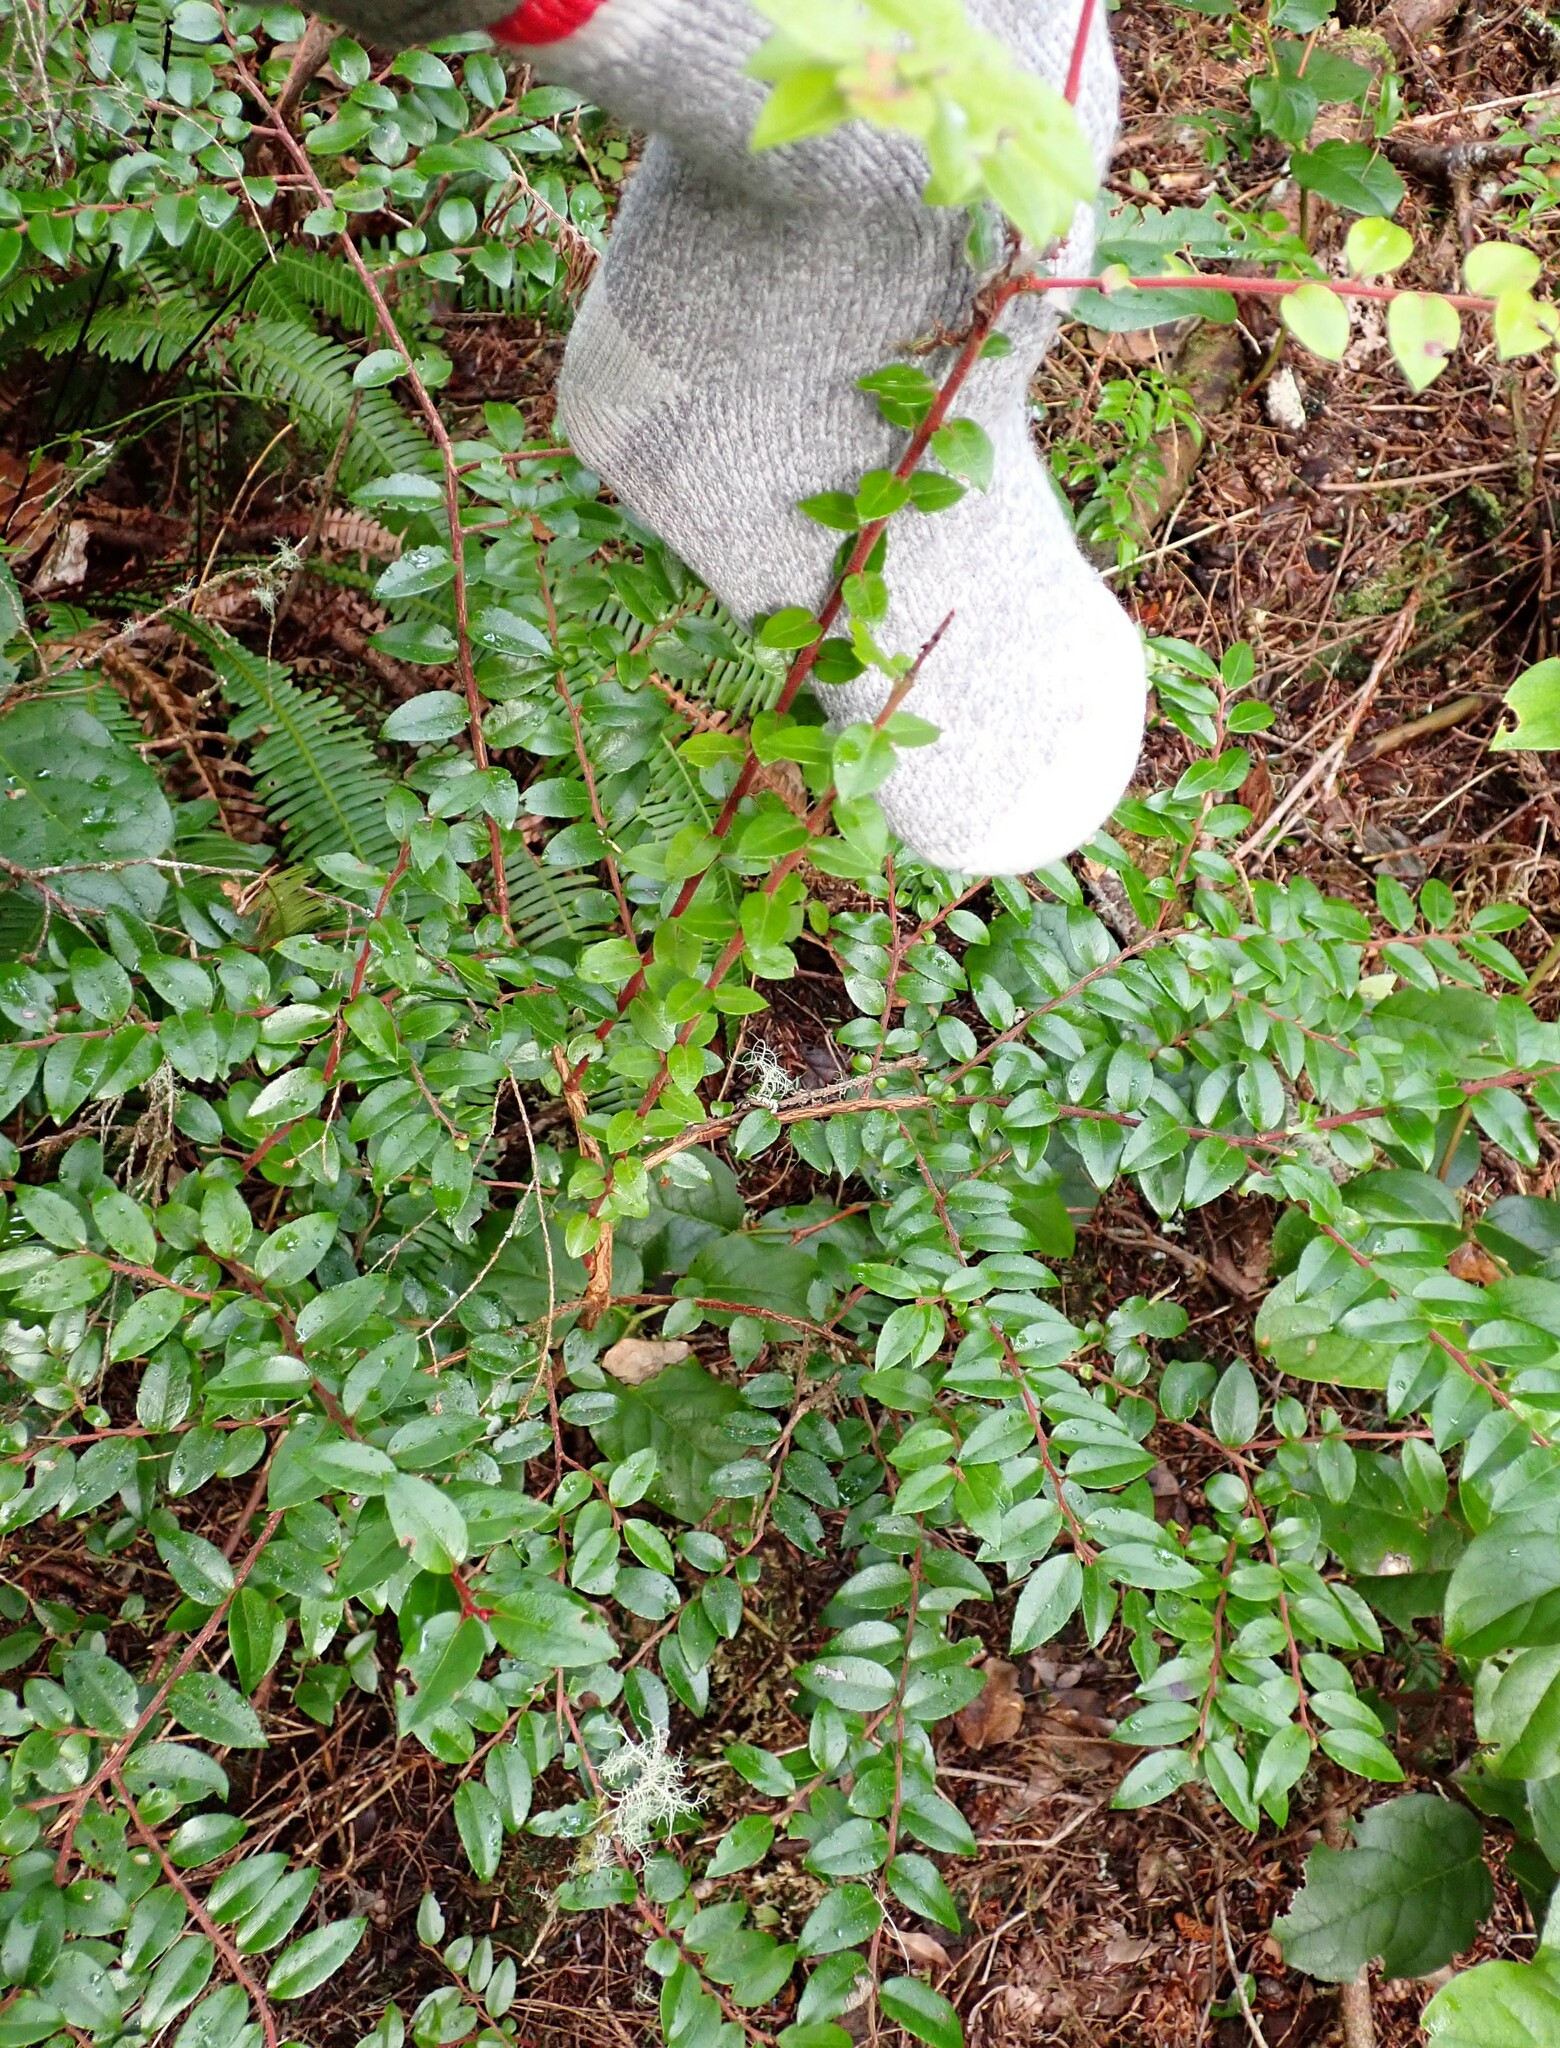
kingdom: Plantae
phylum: Tracheophyta
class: Magnoliopsida
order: Ericales
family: Ericaceae
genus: Vaccinium
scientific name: Vaccinium ovatum
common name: California-huckleberry
